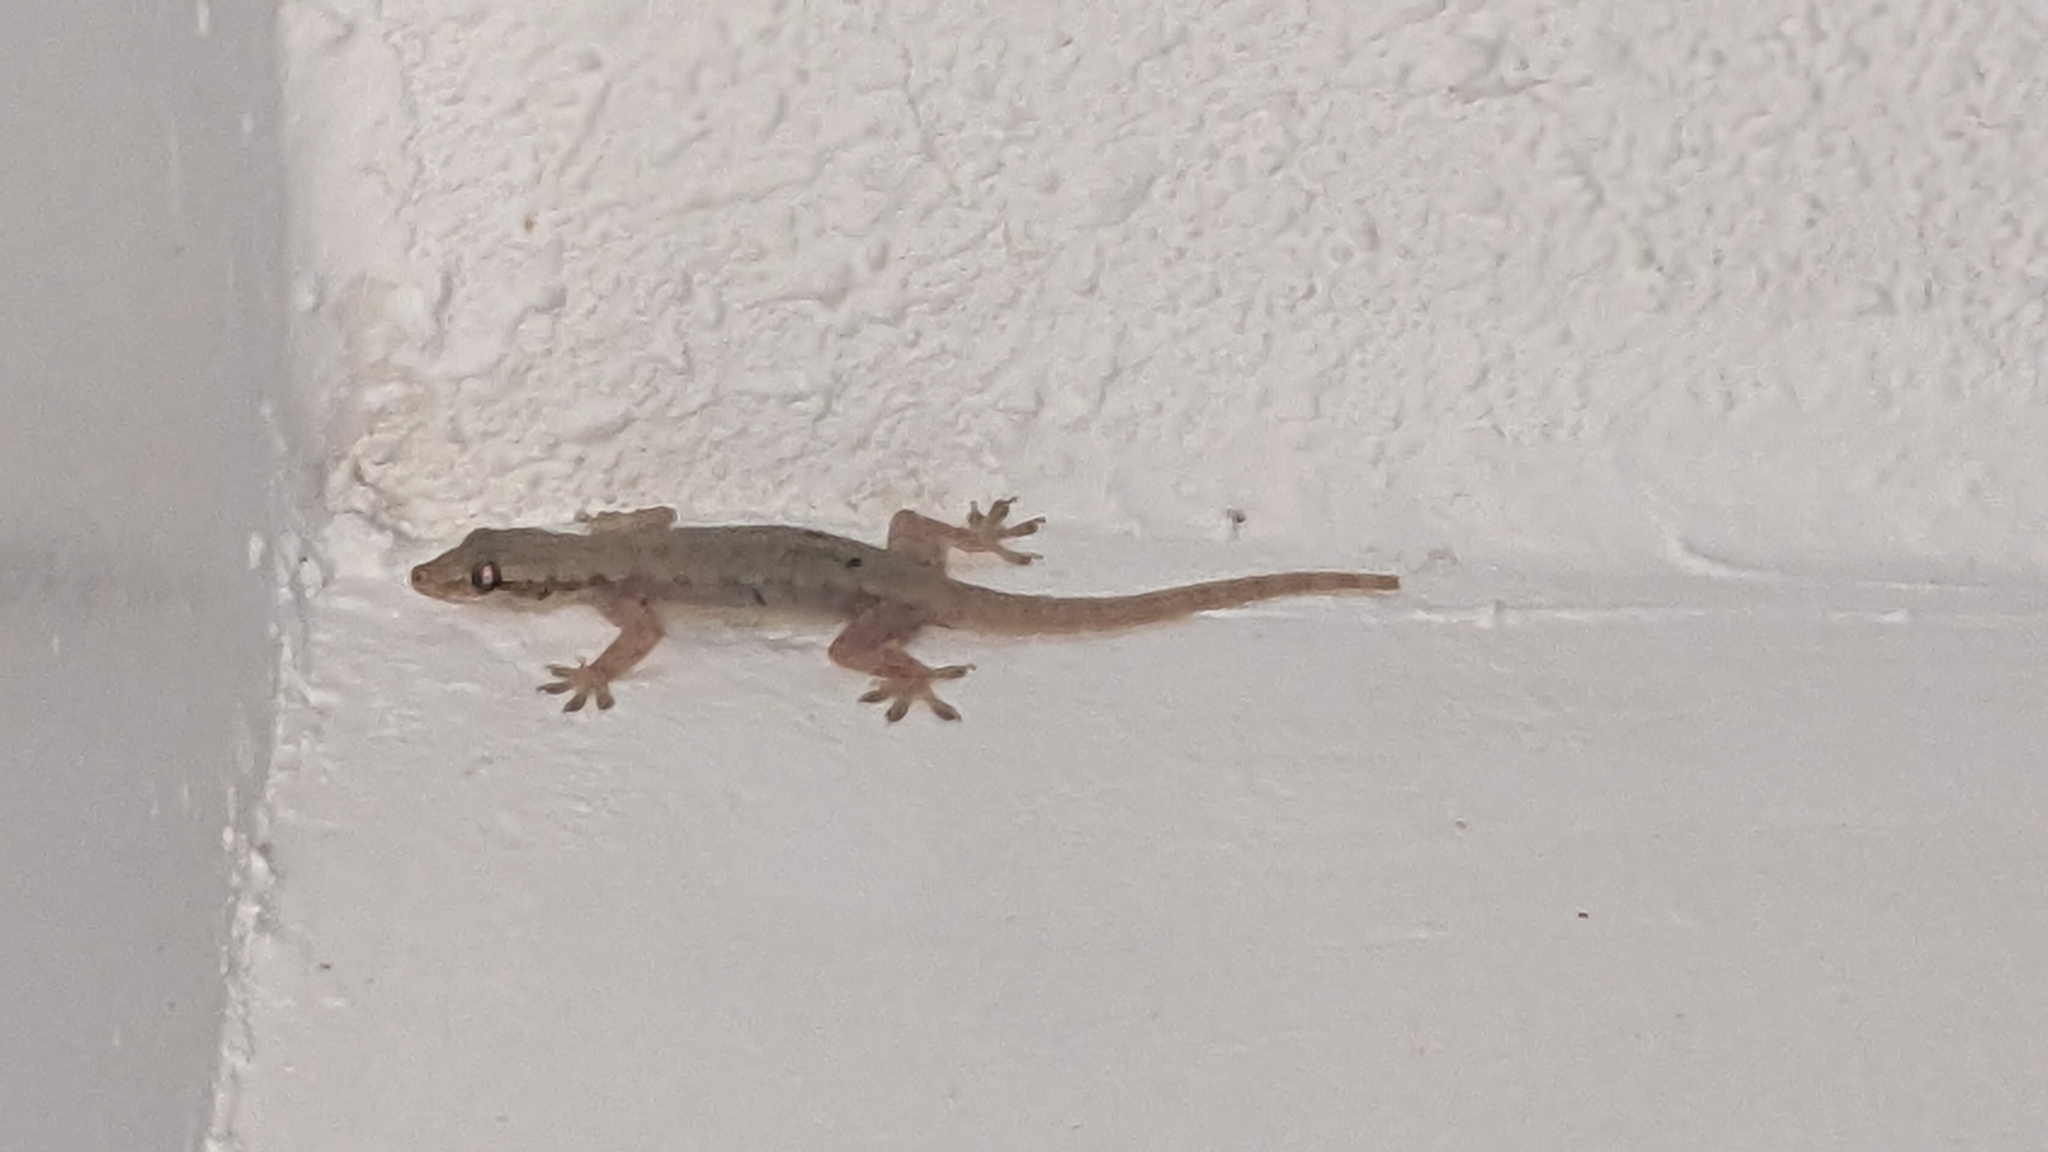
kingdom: Animalia
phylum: Chordata
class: Squamata
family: Gekkonidae
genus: Hemidactylus
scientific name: Hemidactylus platyurus
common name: Flat-tailed house gecko
